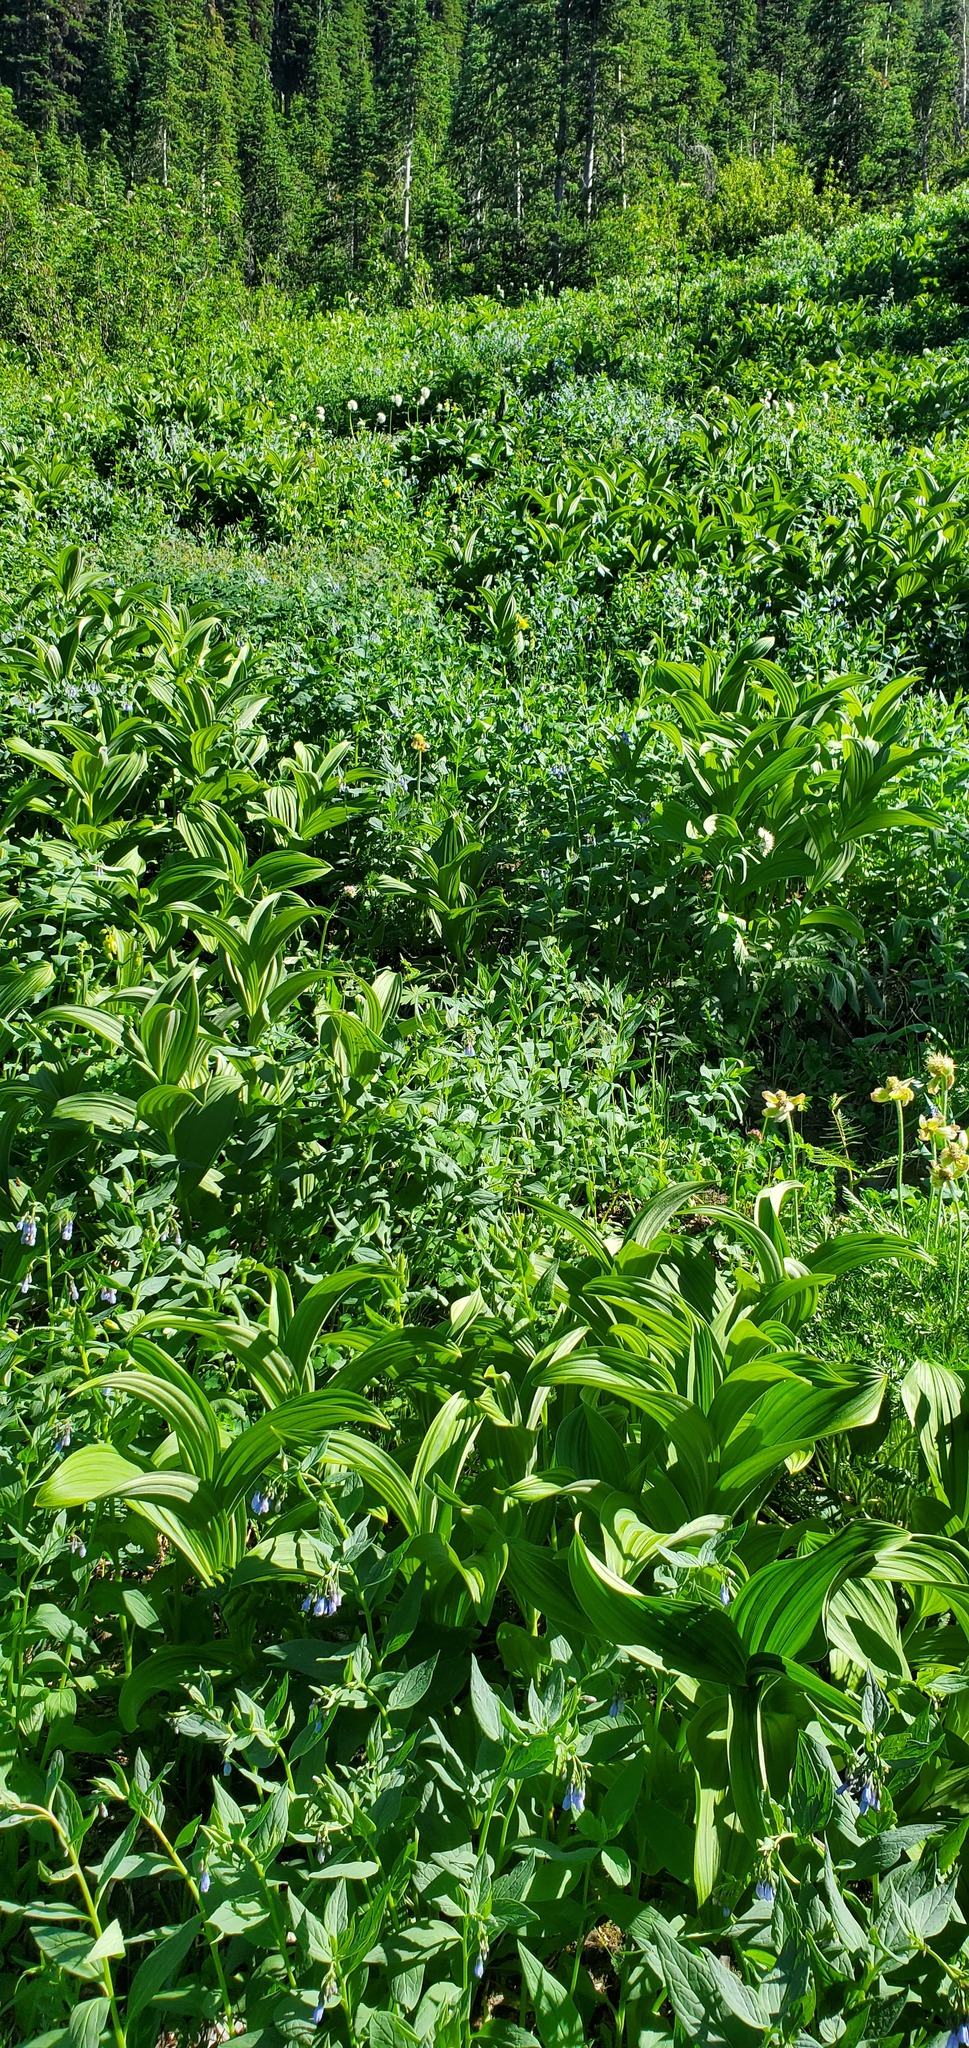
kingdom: Plantae
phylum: Tracheophyta
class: Liliopsida
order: Liliales
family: Melanthiaceae
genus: Veratrum
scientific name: Veratrum viride
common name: American false hellebore
